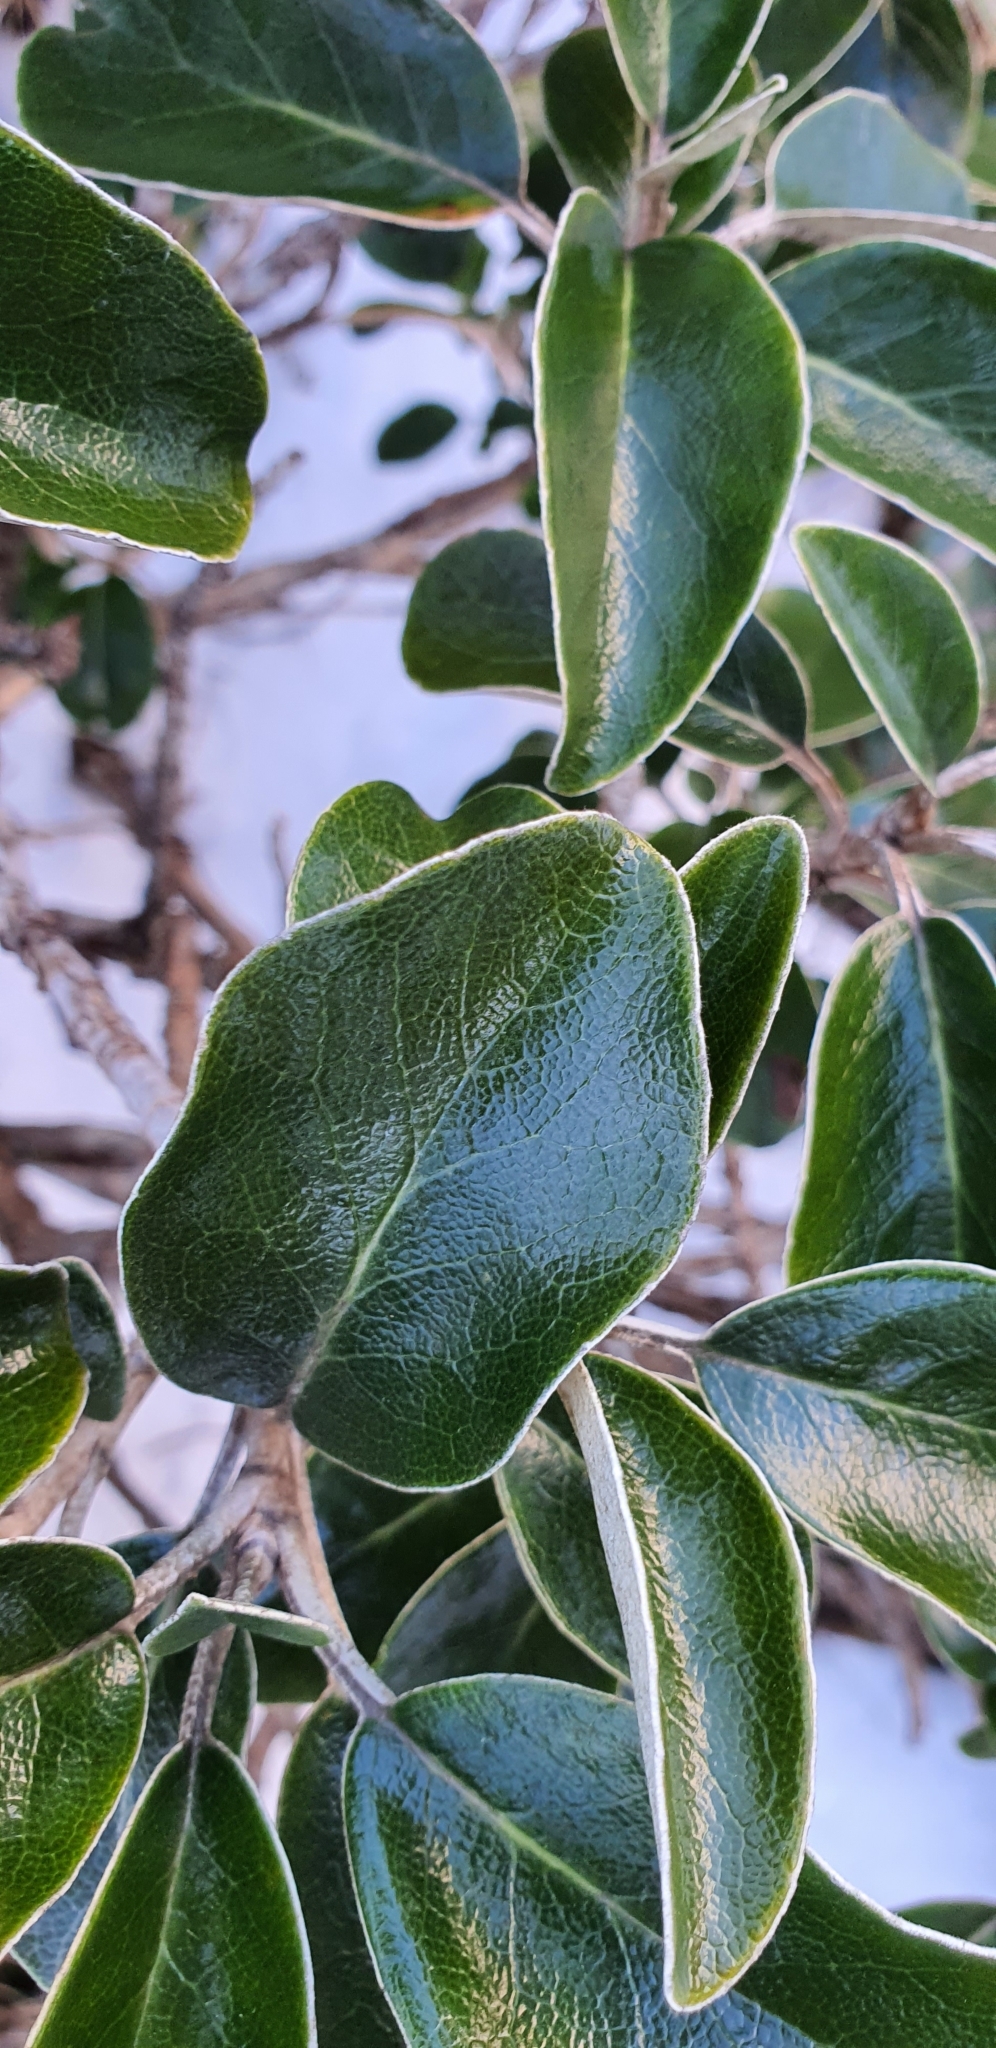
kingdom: Plantae
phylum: Tracheophyta
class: Magnoliopsida
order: Asterales
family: Asteraceae
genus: Brachyglottis
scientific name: Brachyglottis elaeagnifolia
